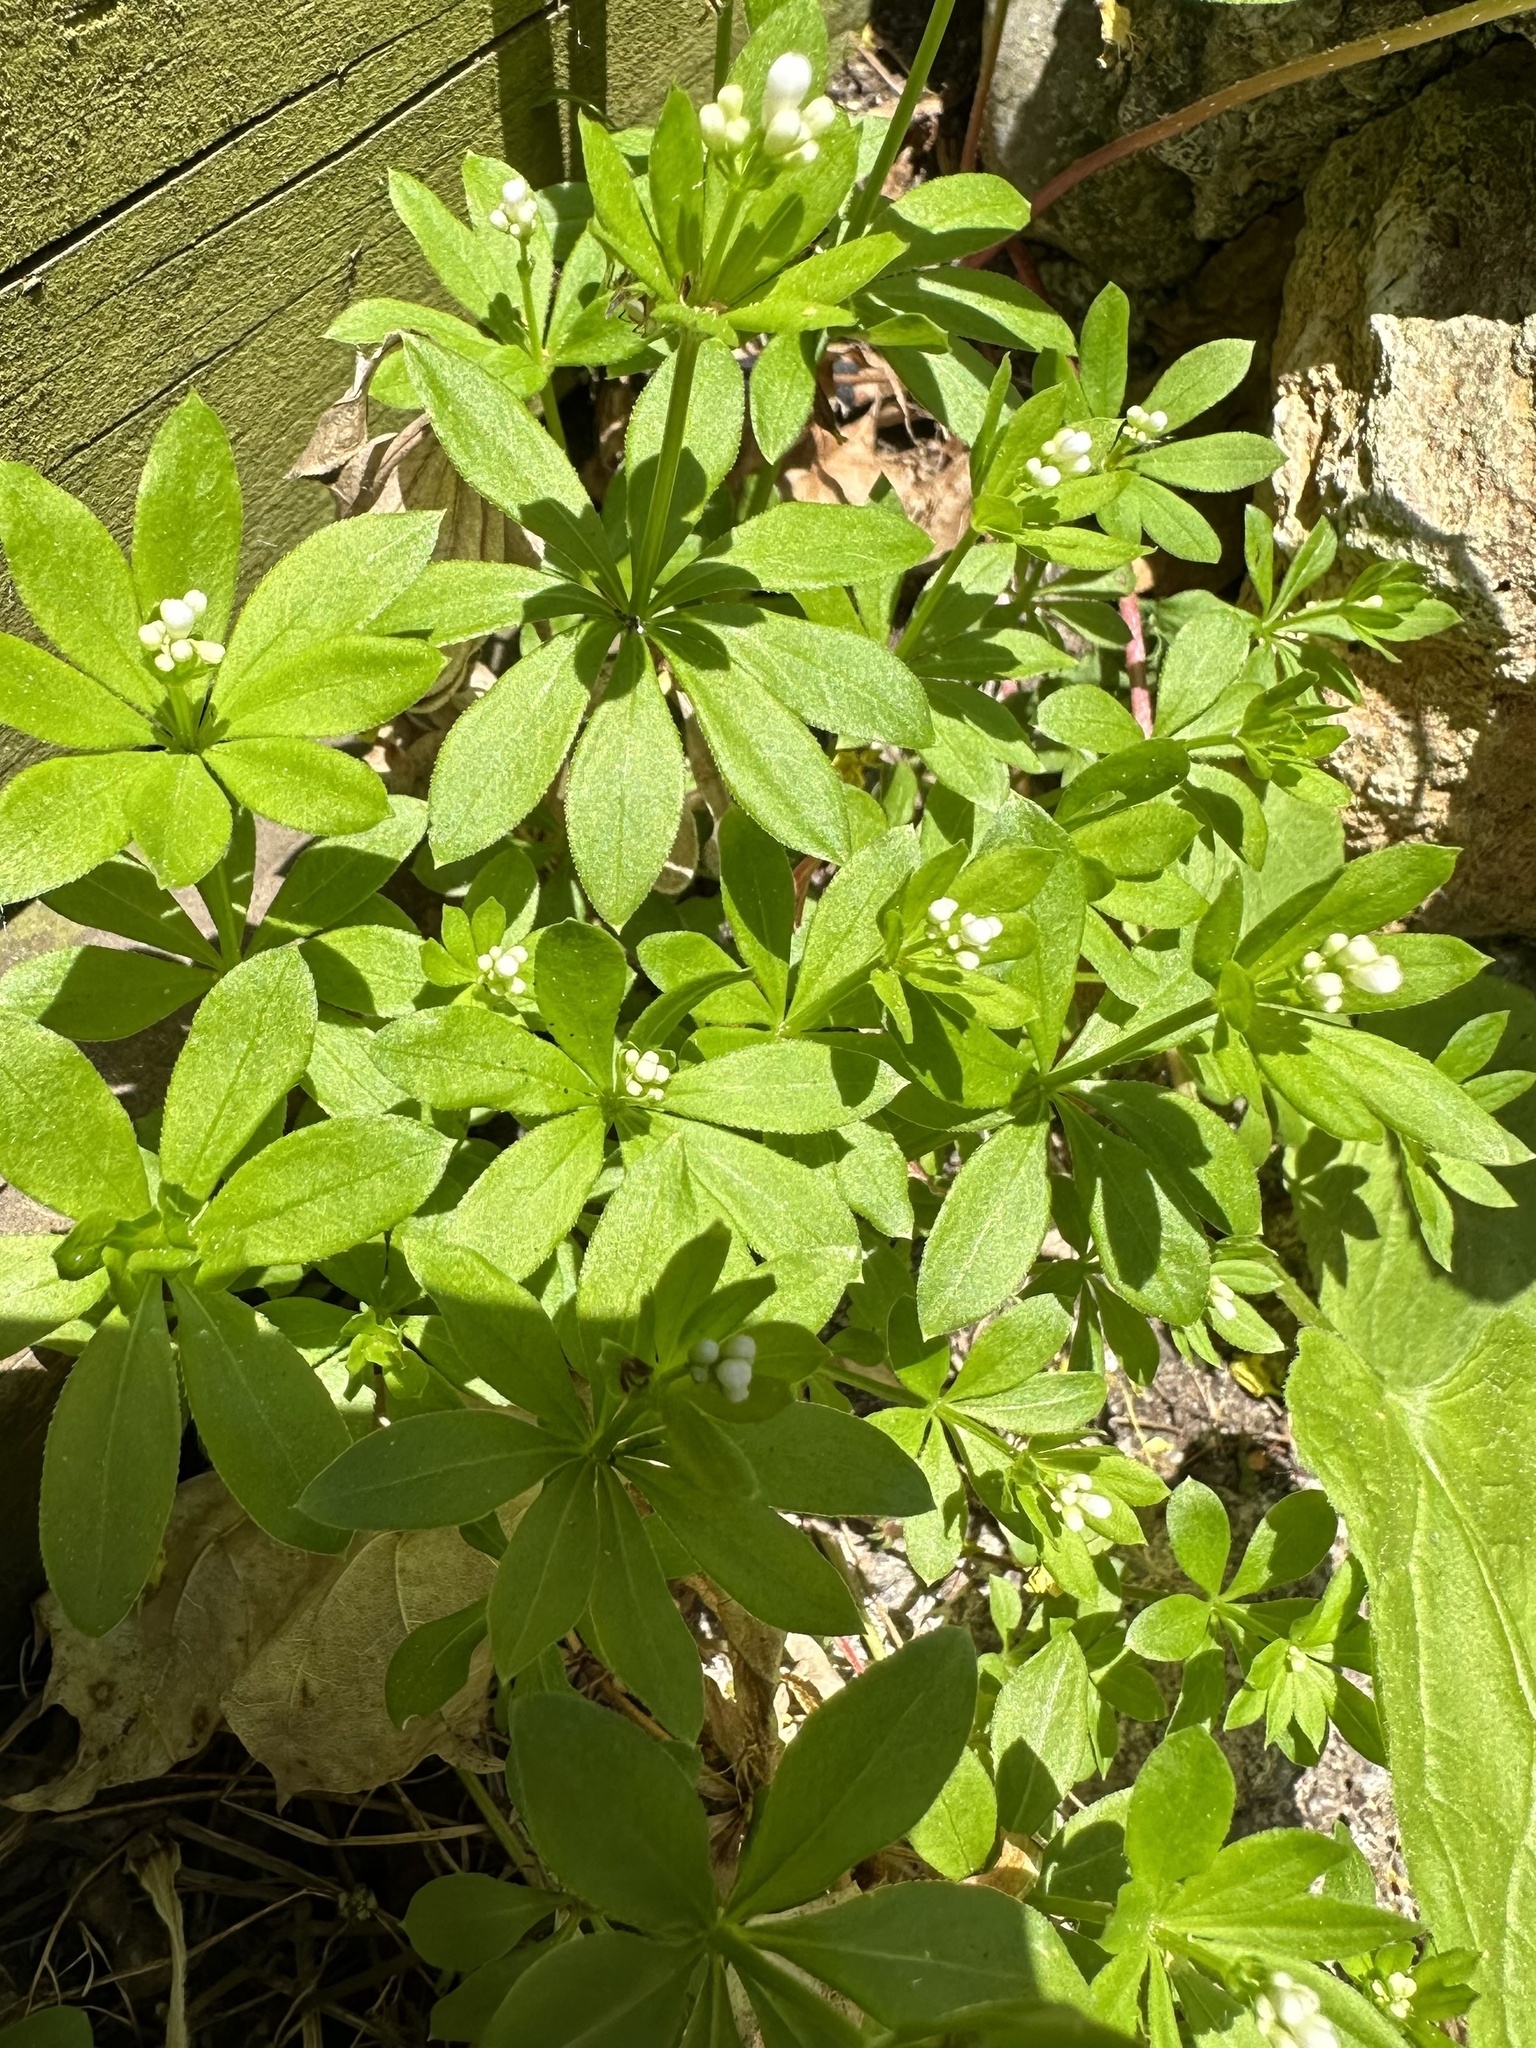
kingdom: Plantae
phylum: Tracheophyta
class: Magnoliopsida
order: Gentianales
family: Rubiaceae
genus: Galium
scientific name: Galium odoratum
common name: Sweet woodruff
